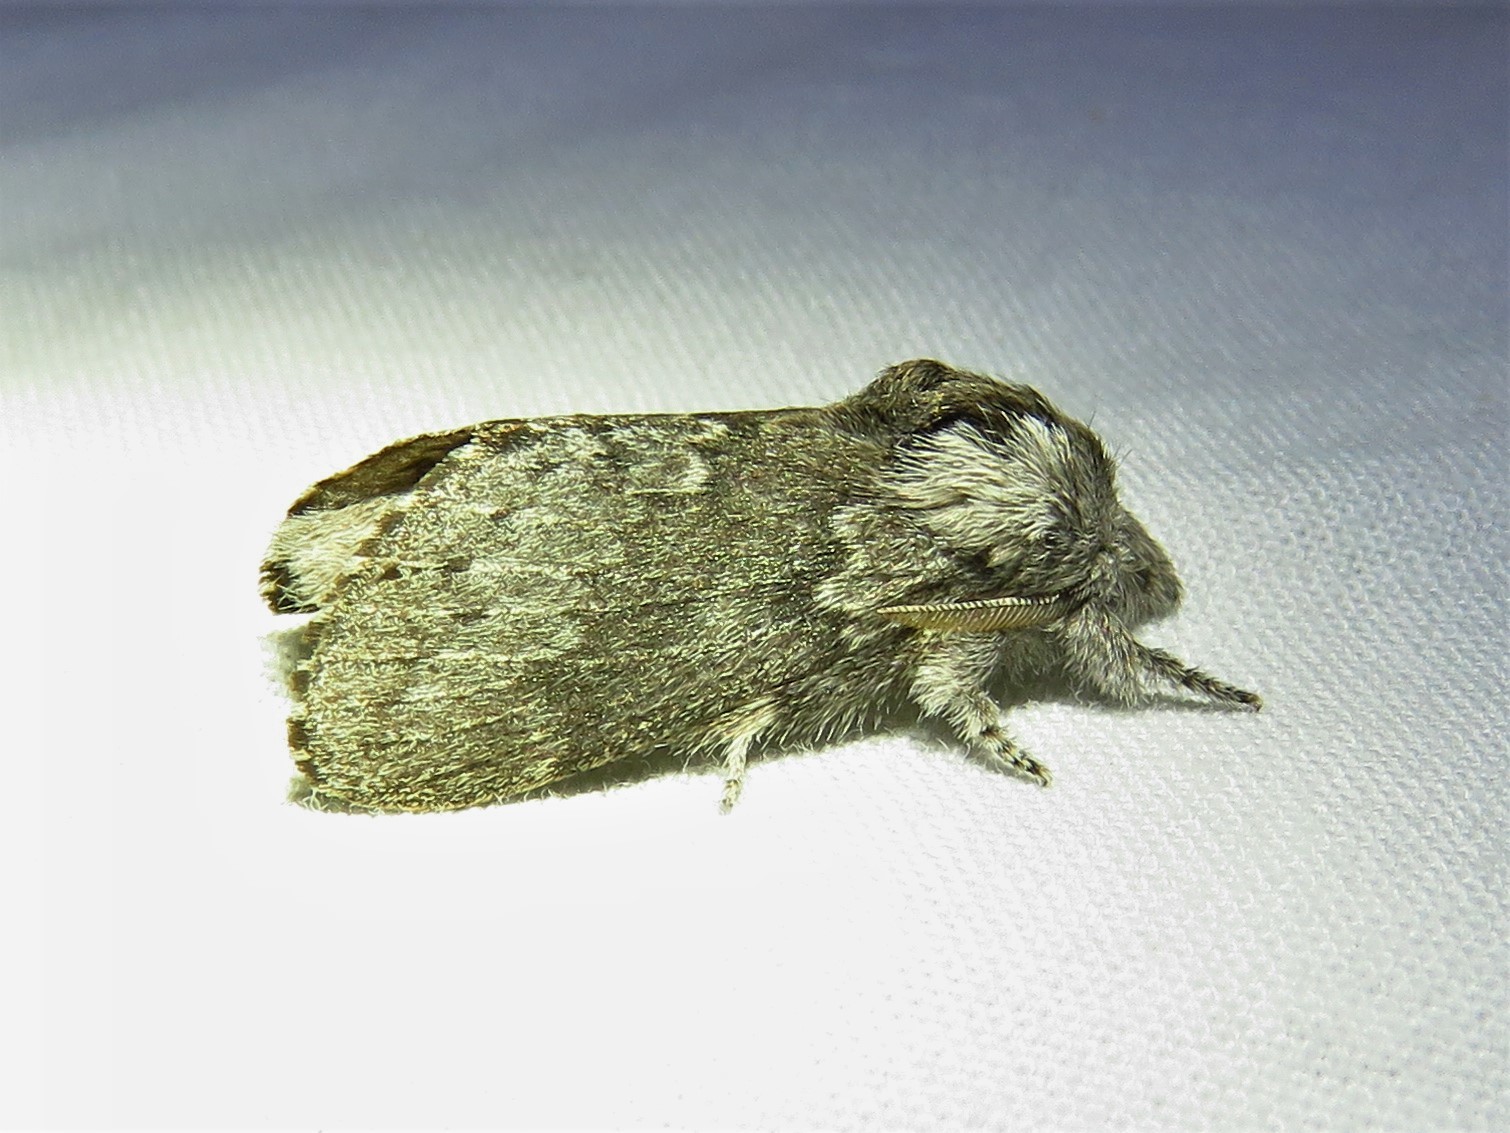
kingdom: Animalia
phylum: Arthropoda
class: Insecta
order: Lepidoptera
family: Lasiocampidae
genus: Heteropacha
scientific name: Heteropacha rileyana
